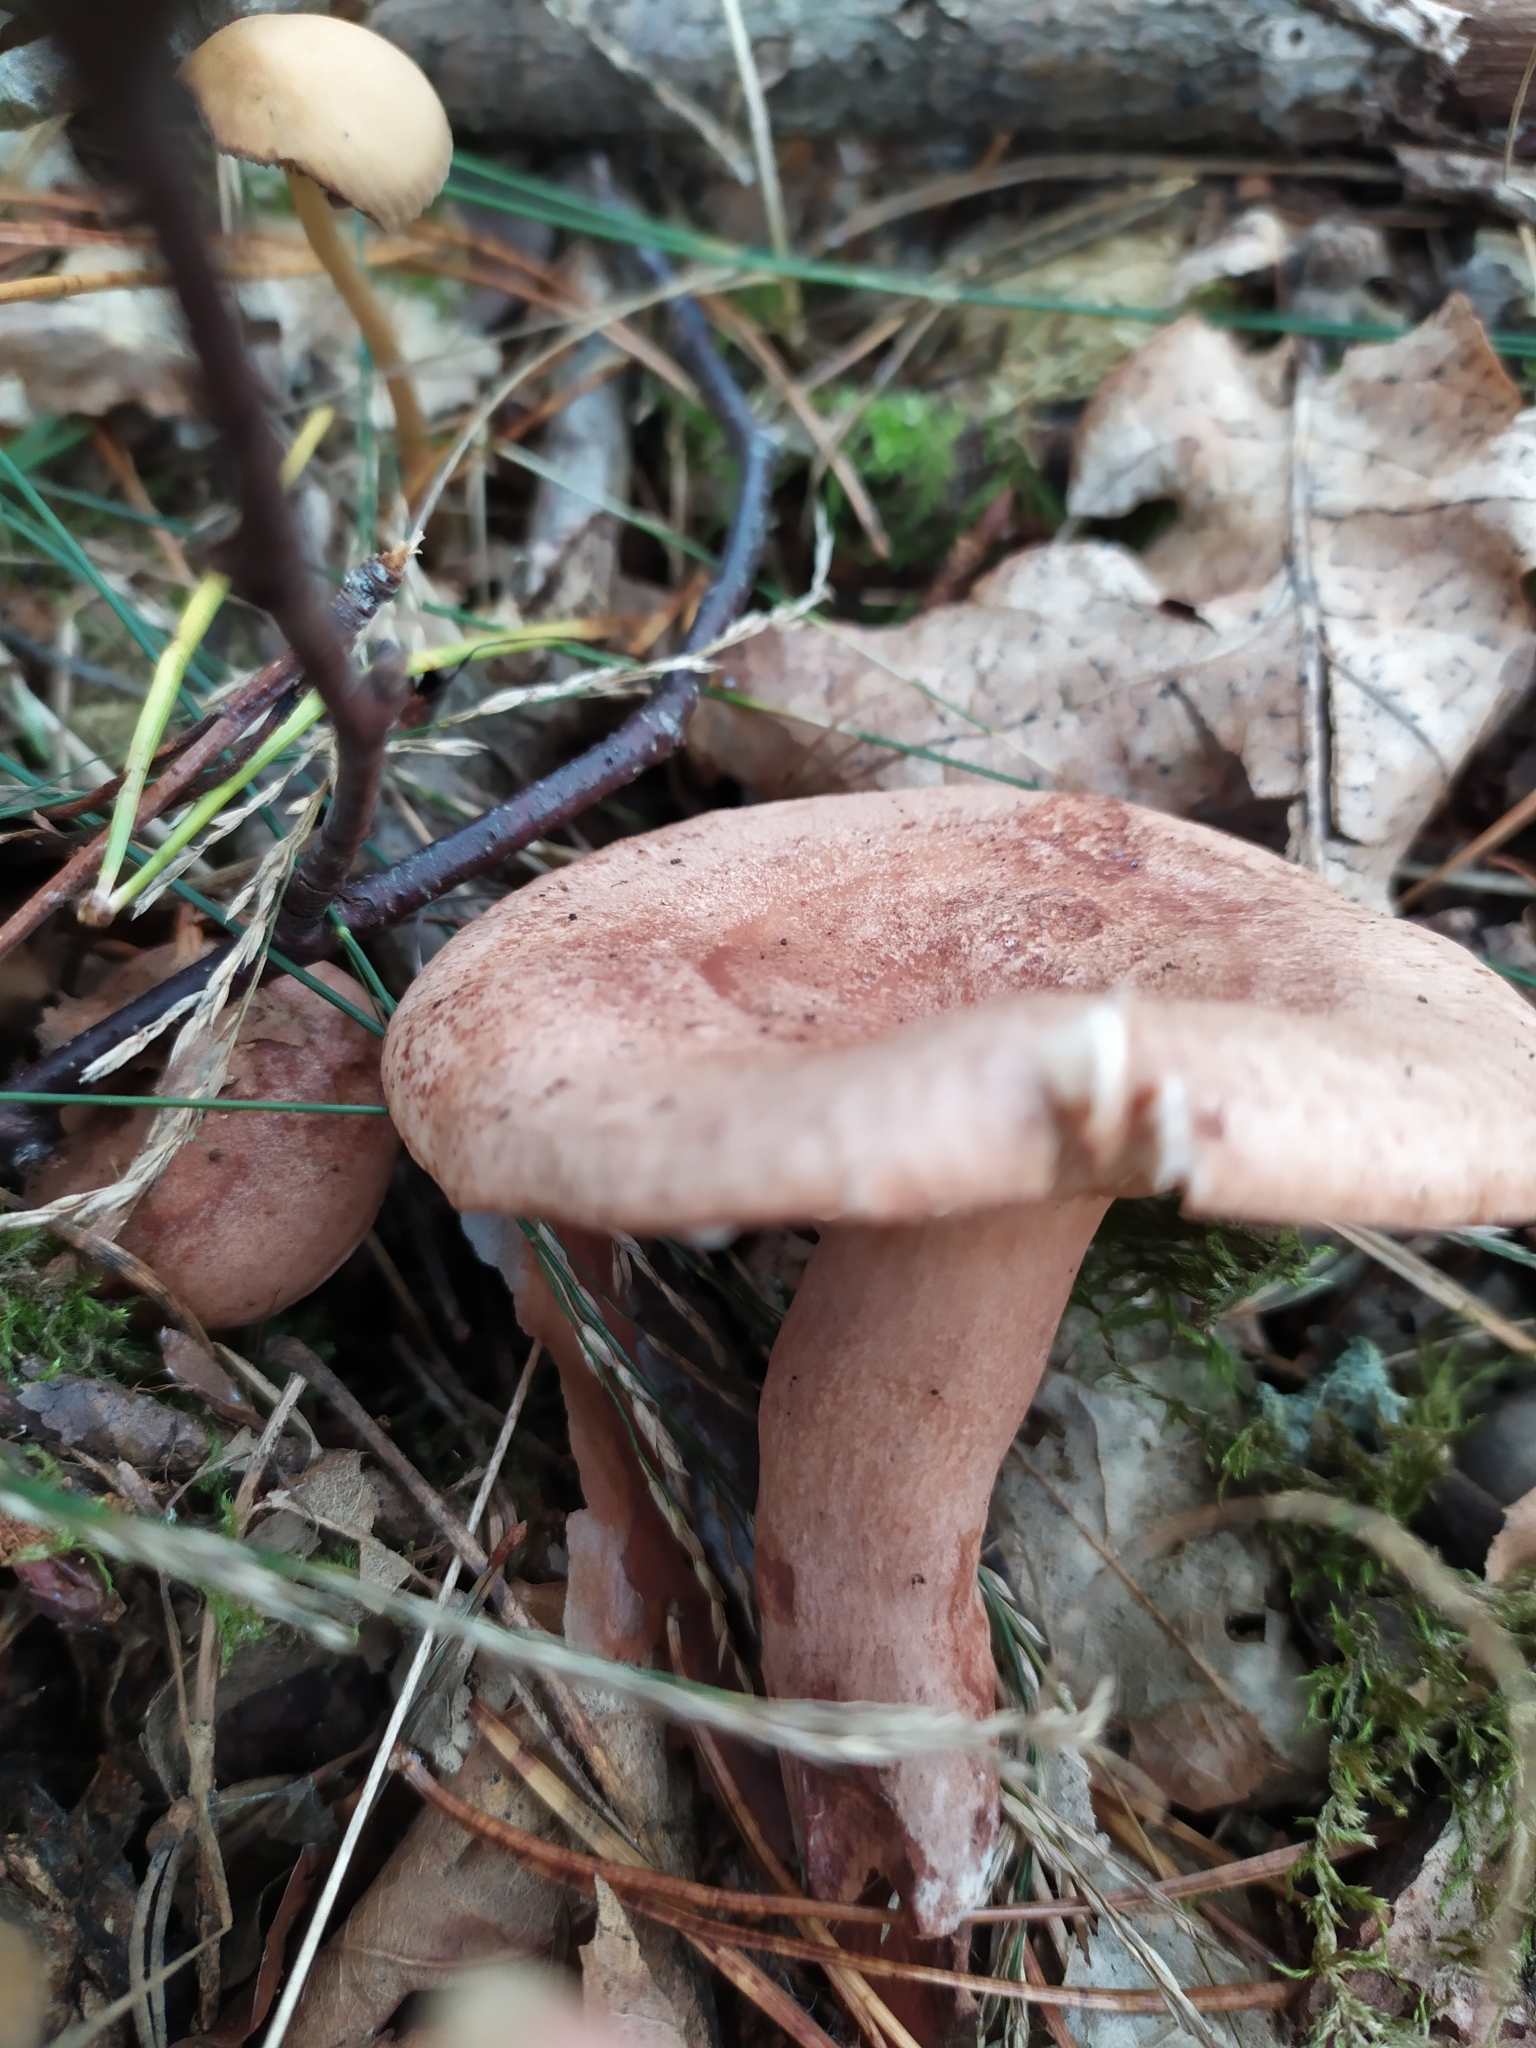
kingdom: Fungi
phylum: Basidiomycota
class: Agaricomycetes
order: Russulales
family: Russulaceae
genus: Lactarius
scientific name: Lactarius quietus
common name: Oak milk-cap
